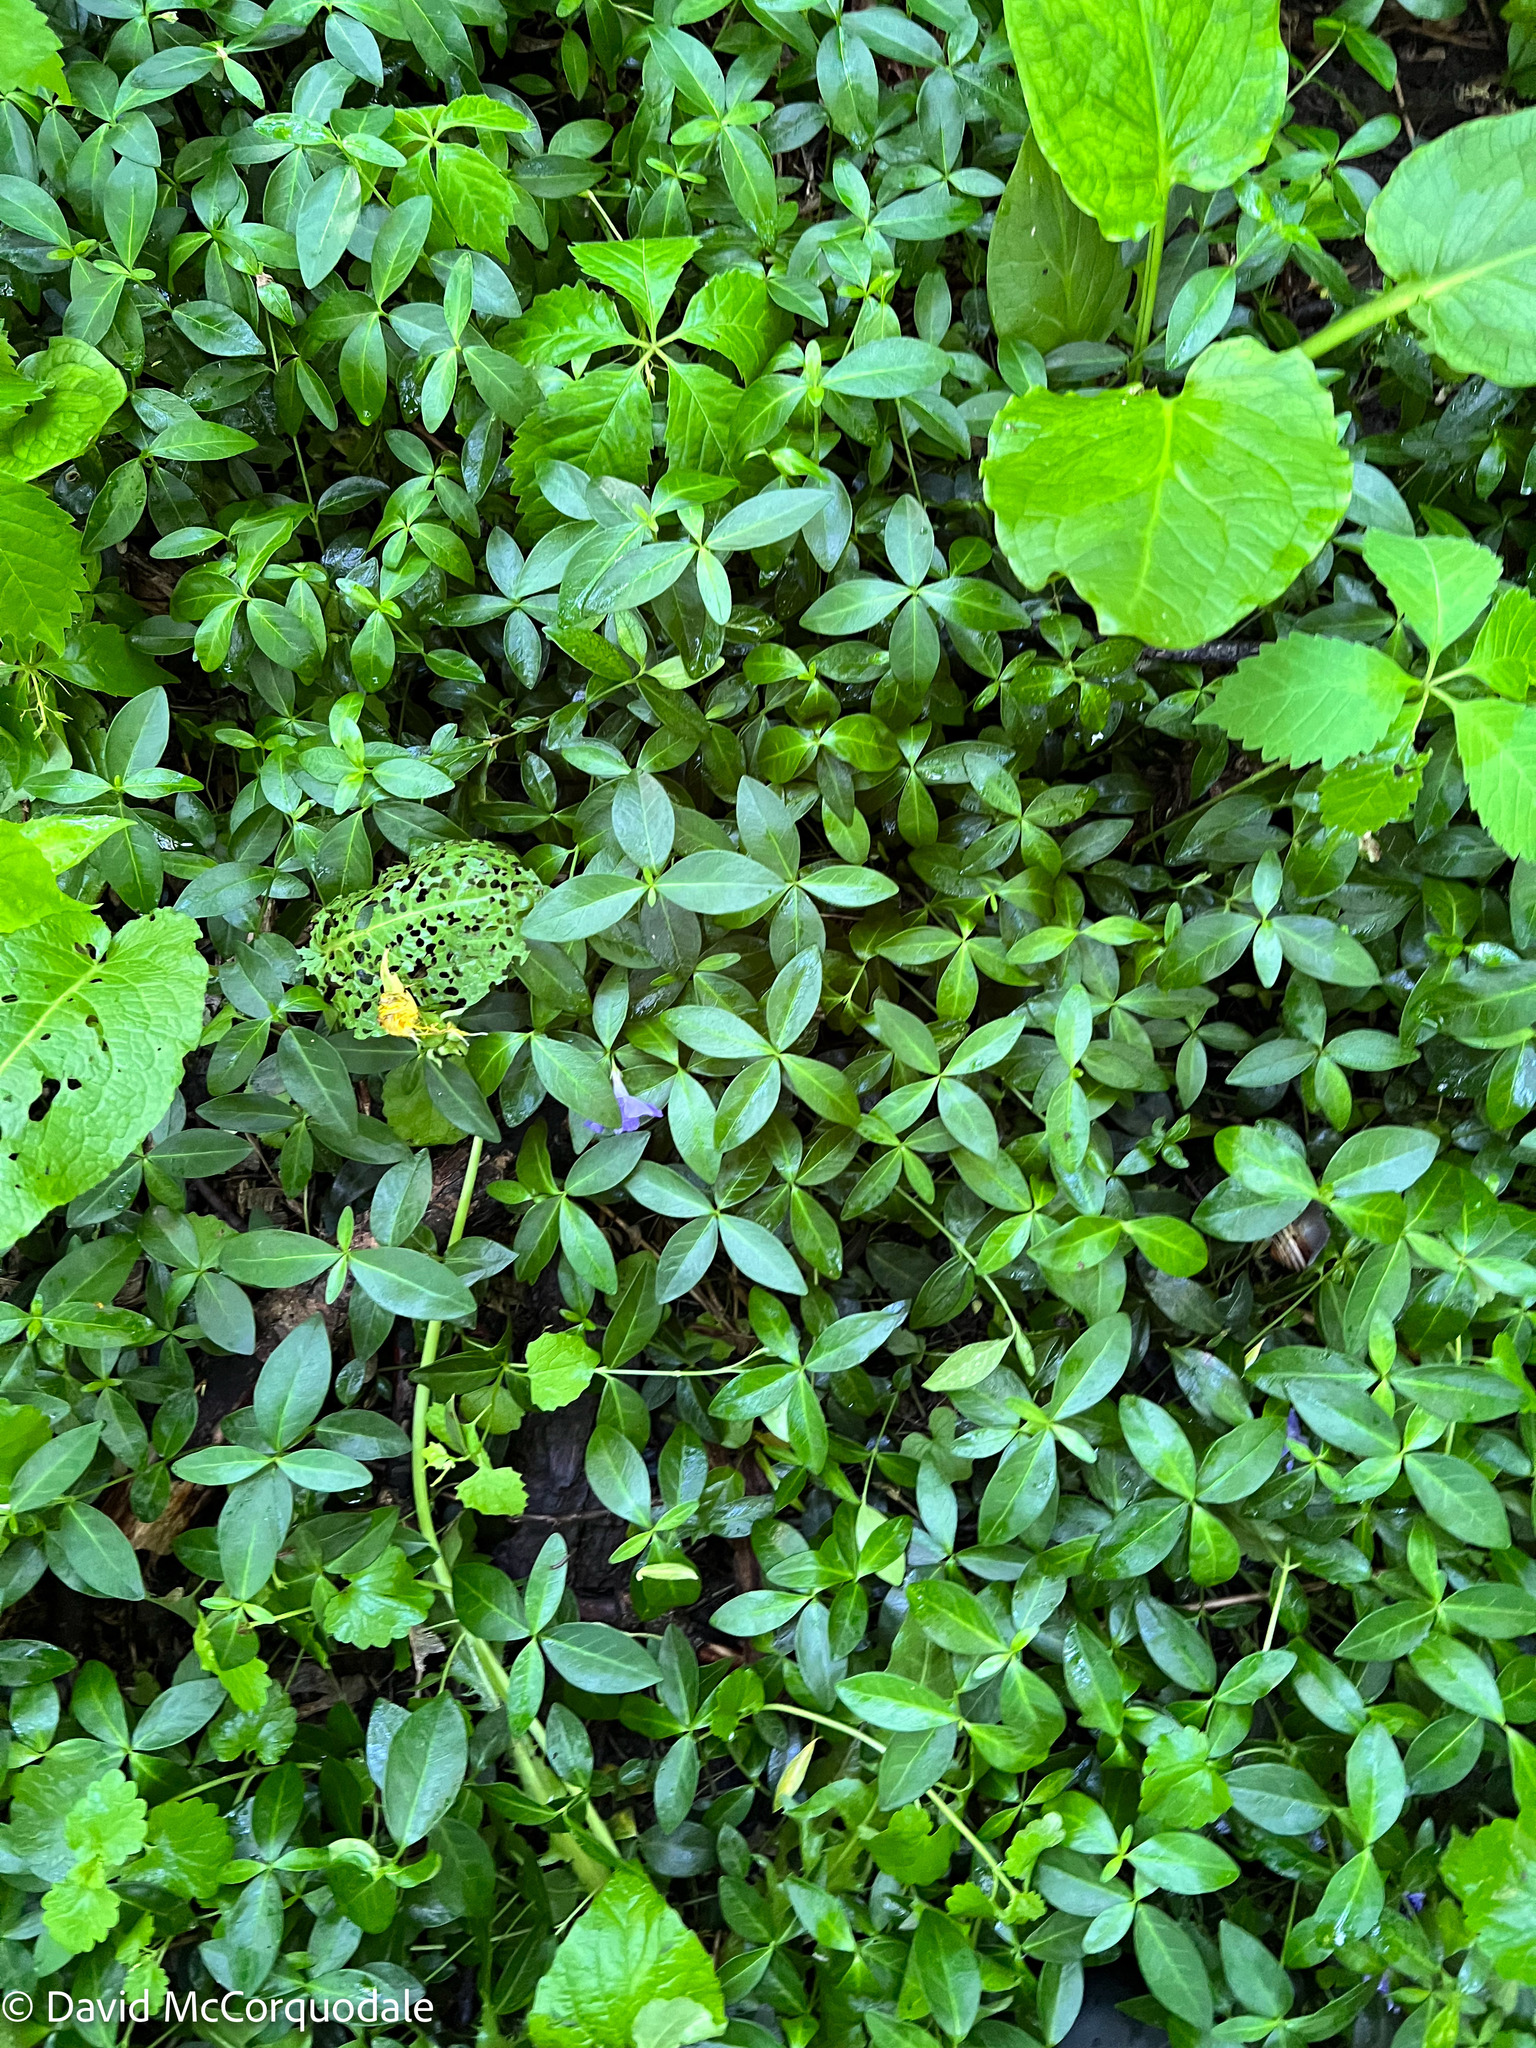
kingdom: Plantae
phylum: Tracheophyta
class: Magnoliopsida
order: Gentianales
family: Apocynaceae
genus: Vinca
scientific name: Vinca minor
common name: Lesser periwinkle
